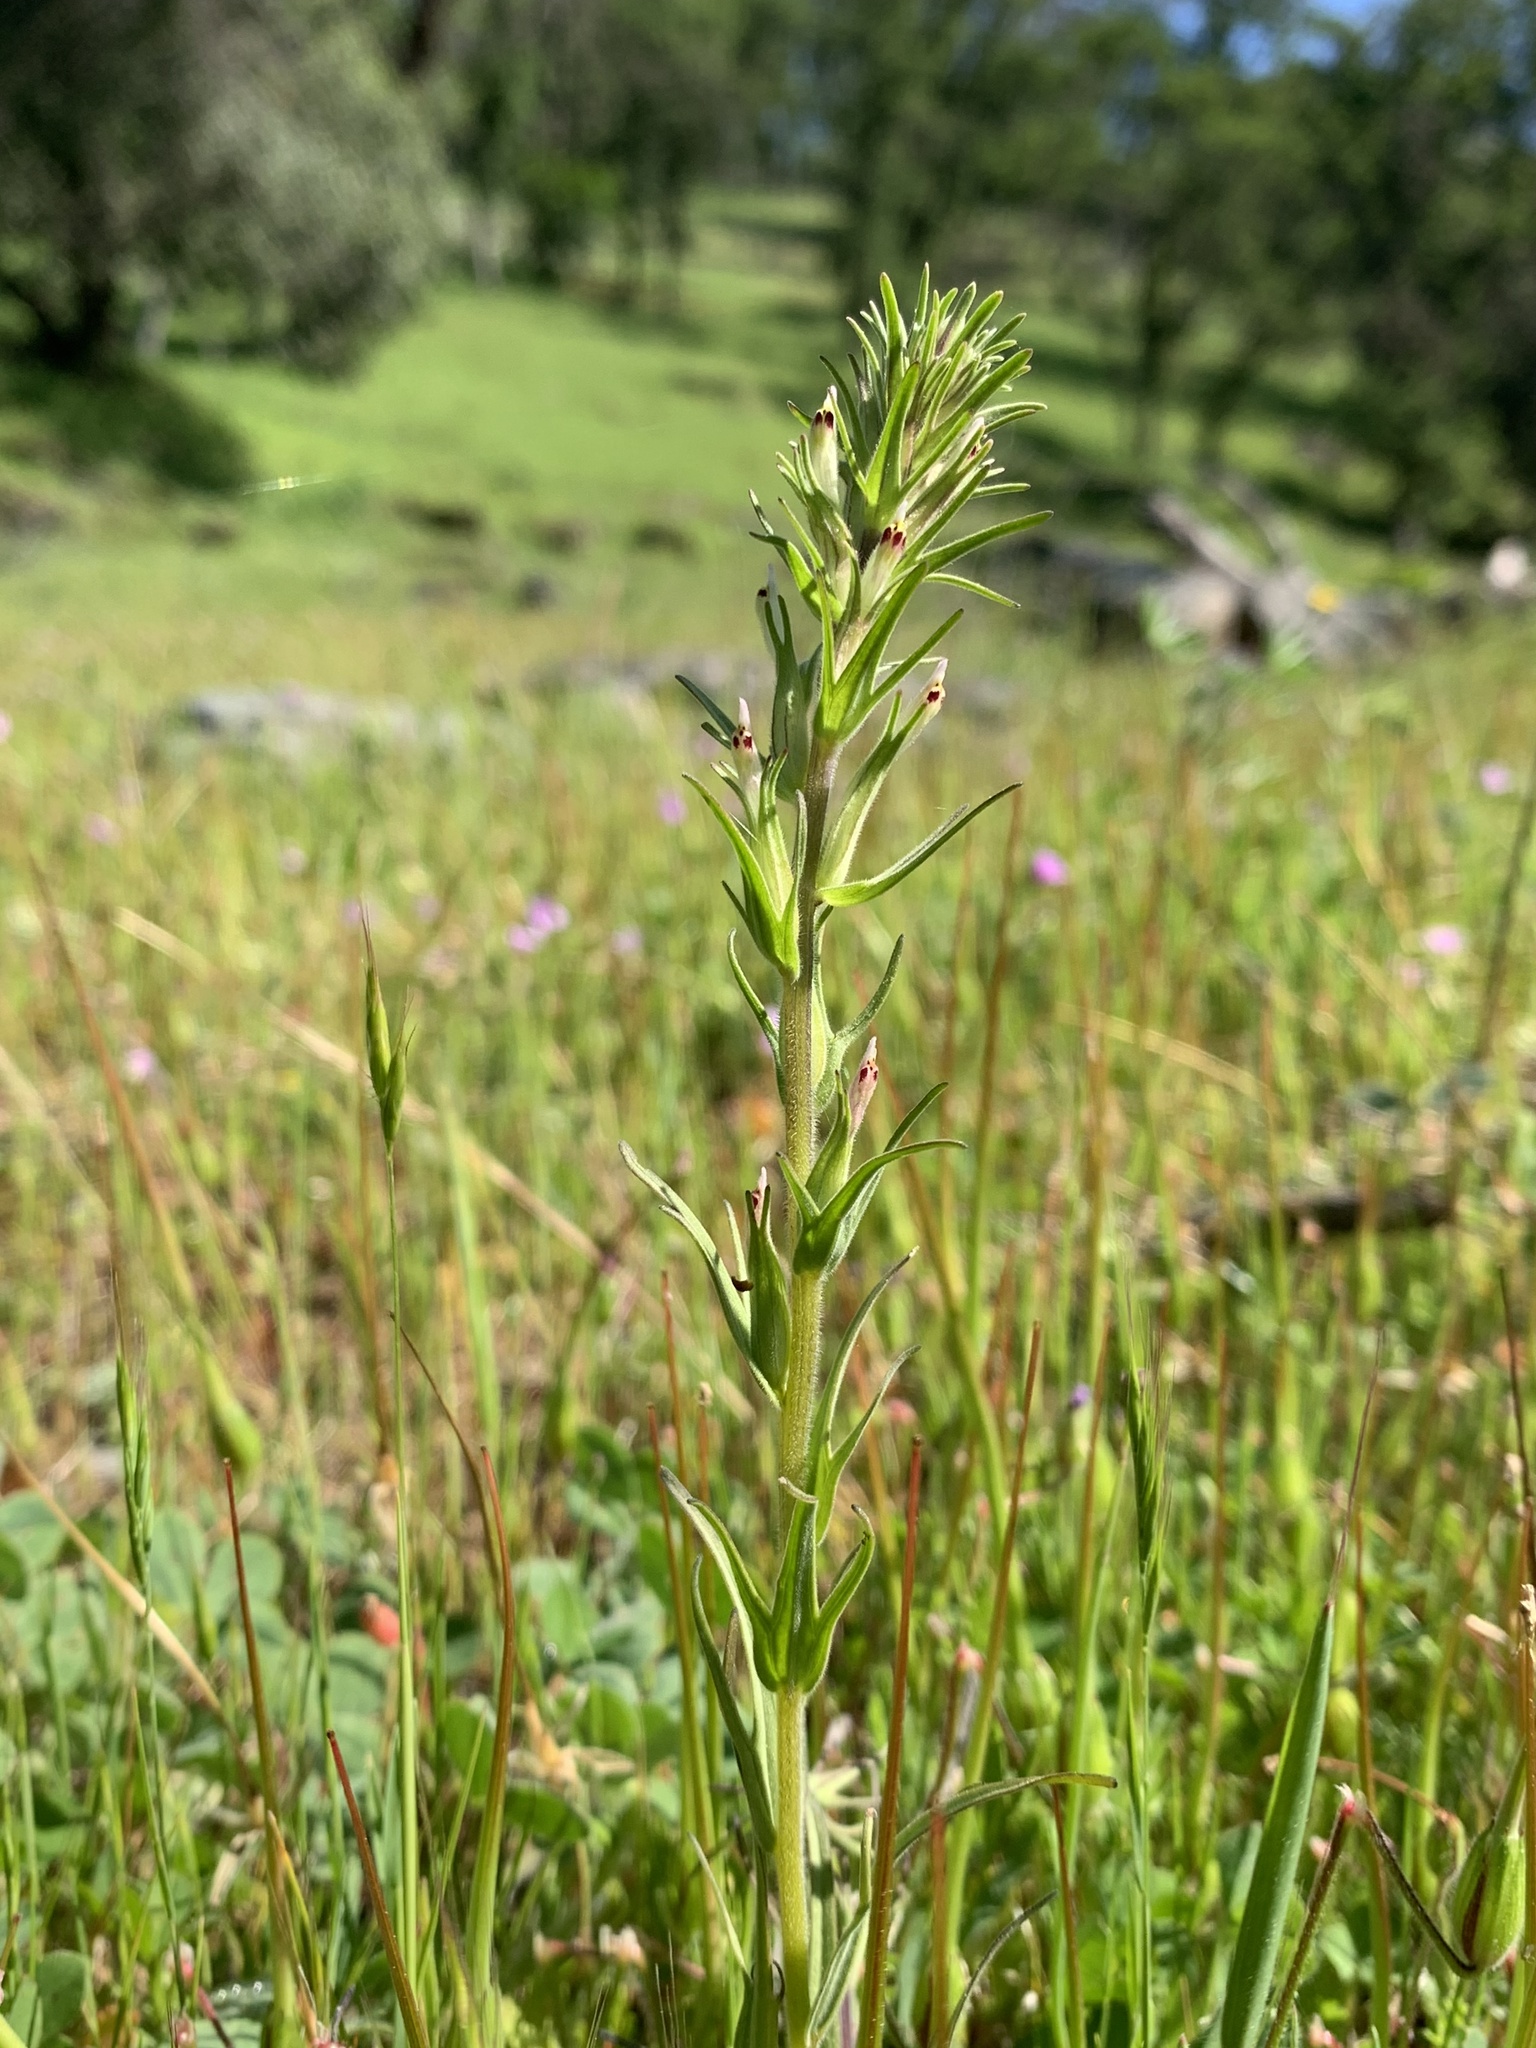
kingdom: Plantae
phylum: Tracheophyta
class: Magnoliopsida
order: Lamiales
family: Orobanchaceae
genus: Castilleja
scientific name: Castilleja attenuata
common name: Valley tassels
